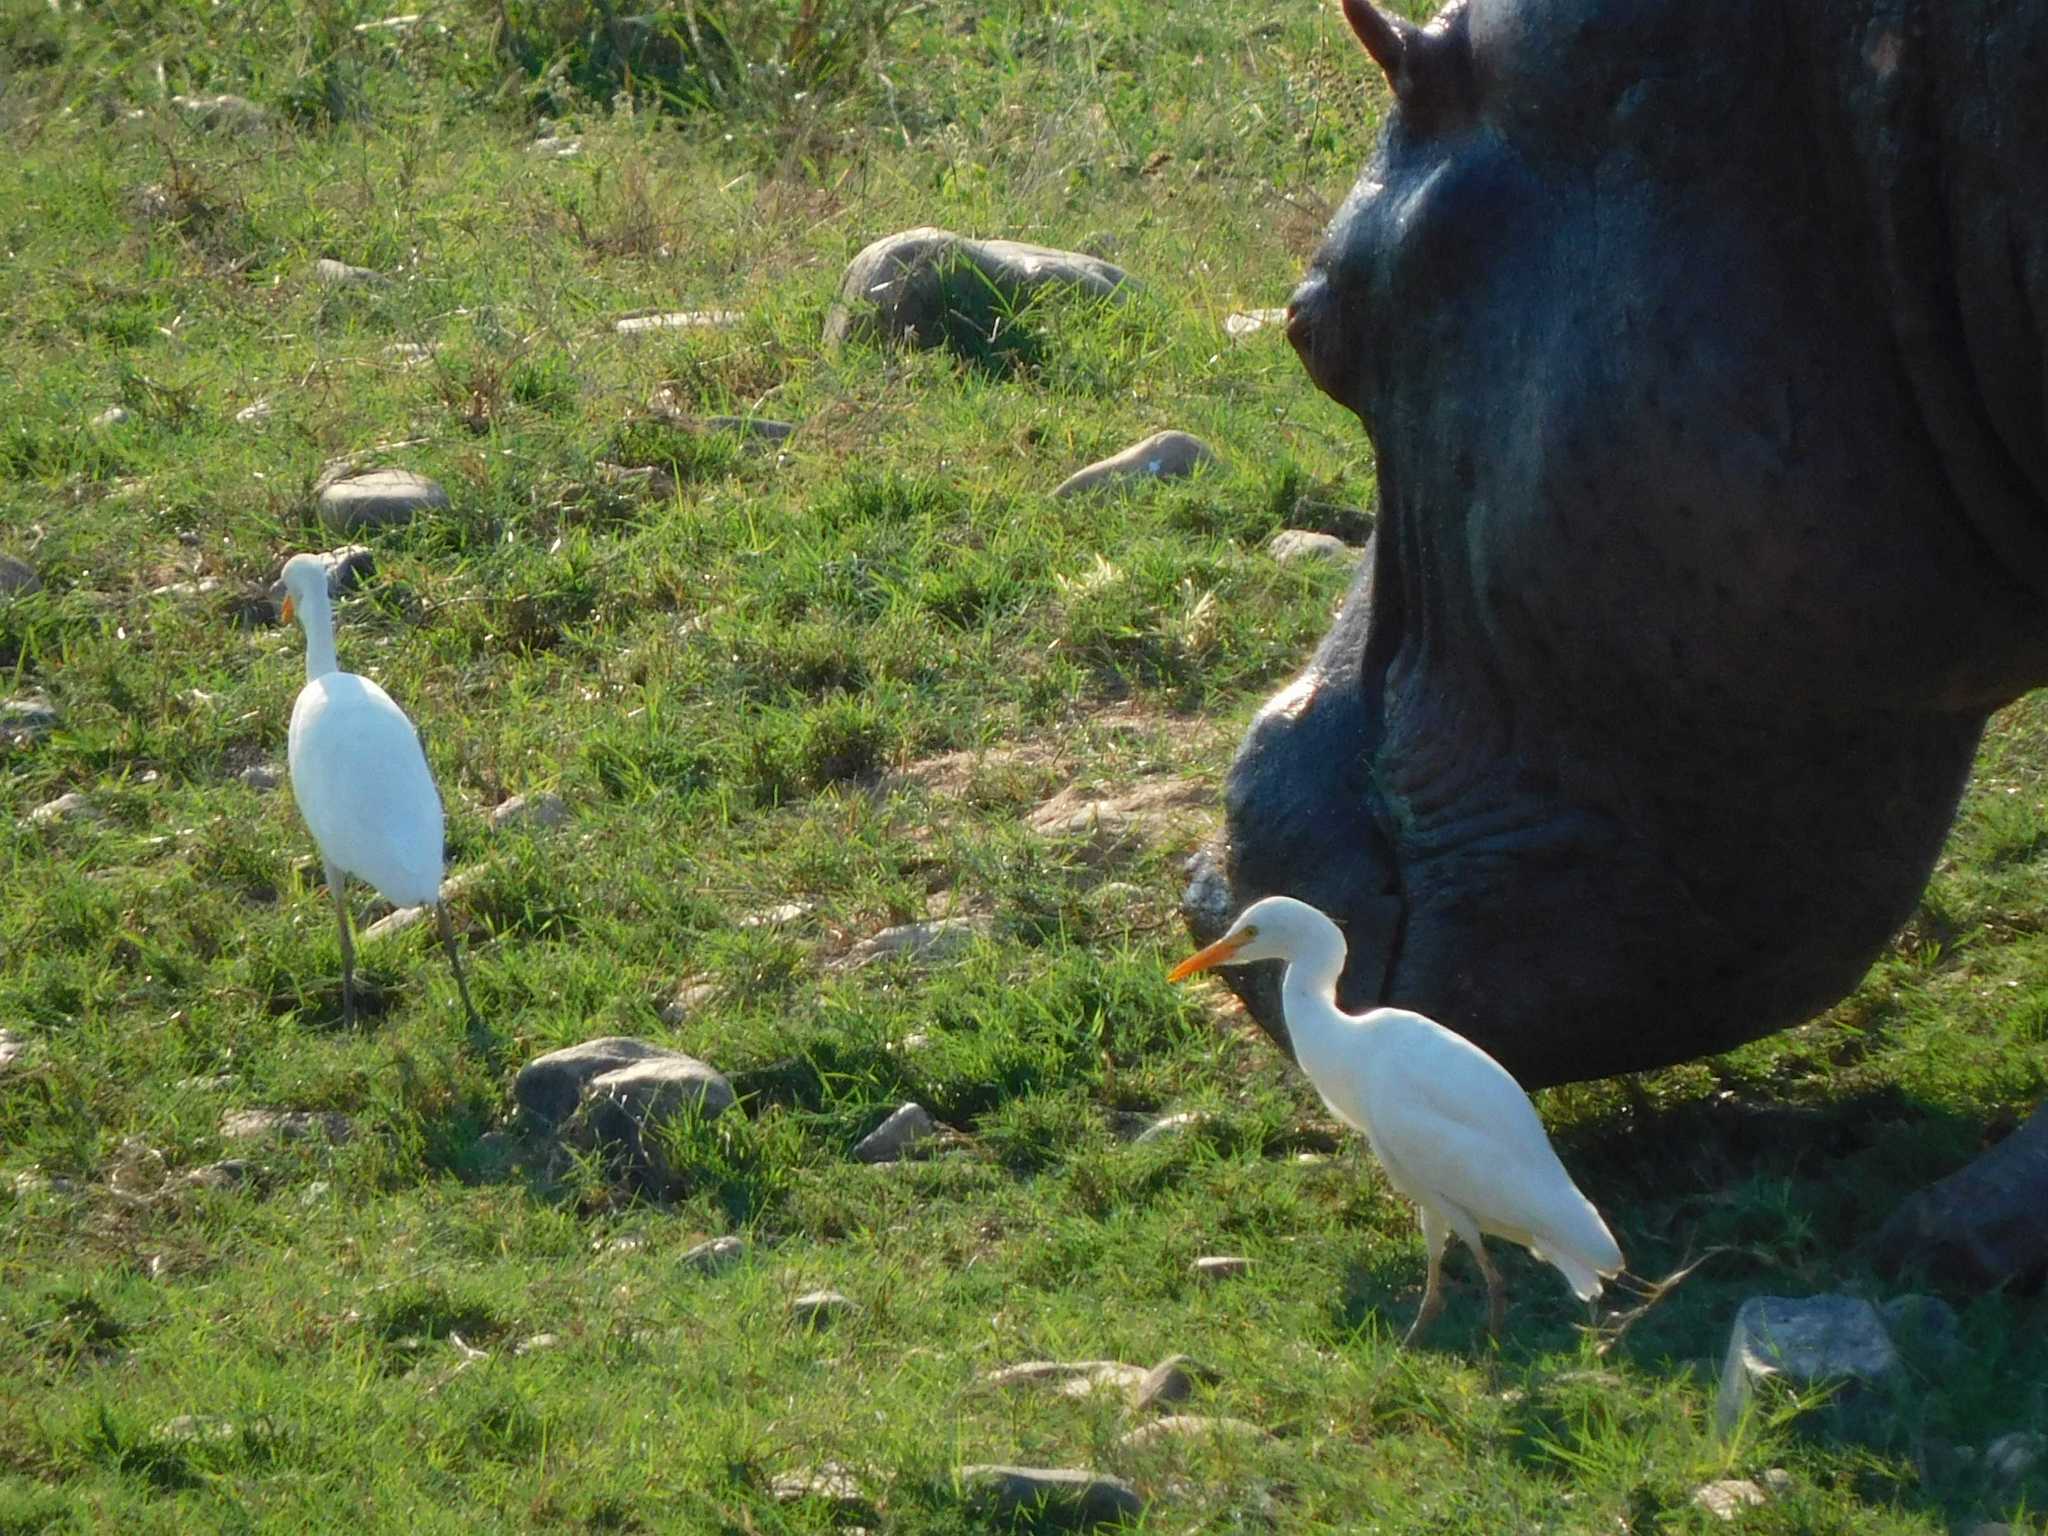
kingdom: Animalia
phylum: Chordata
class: Aves
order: Pelecaniformes
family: Ardeidae
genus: Bubulcus
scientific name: Bubulcus ibis
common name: Cattle egret
